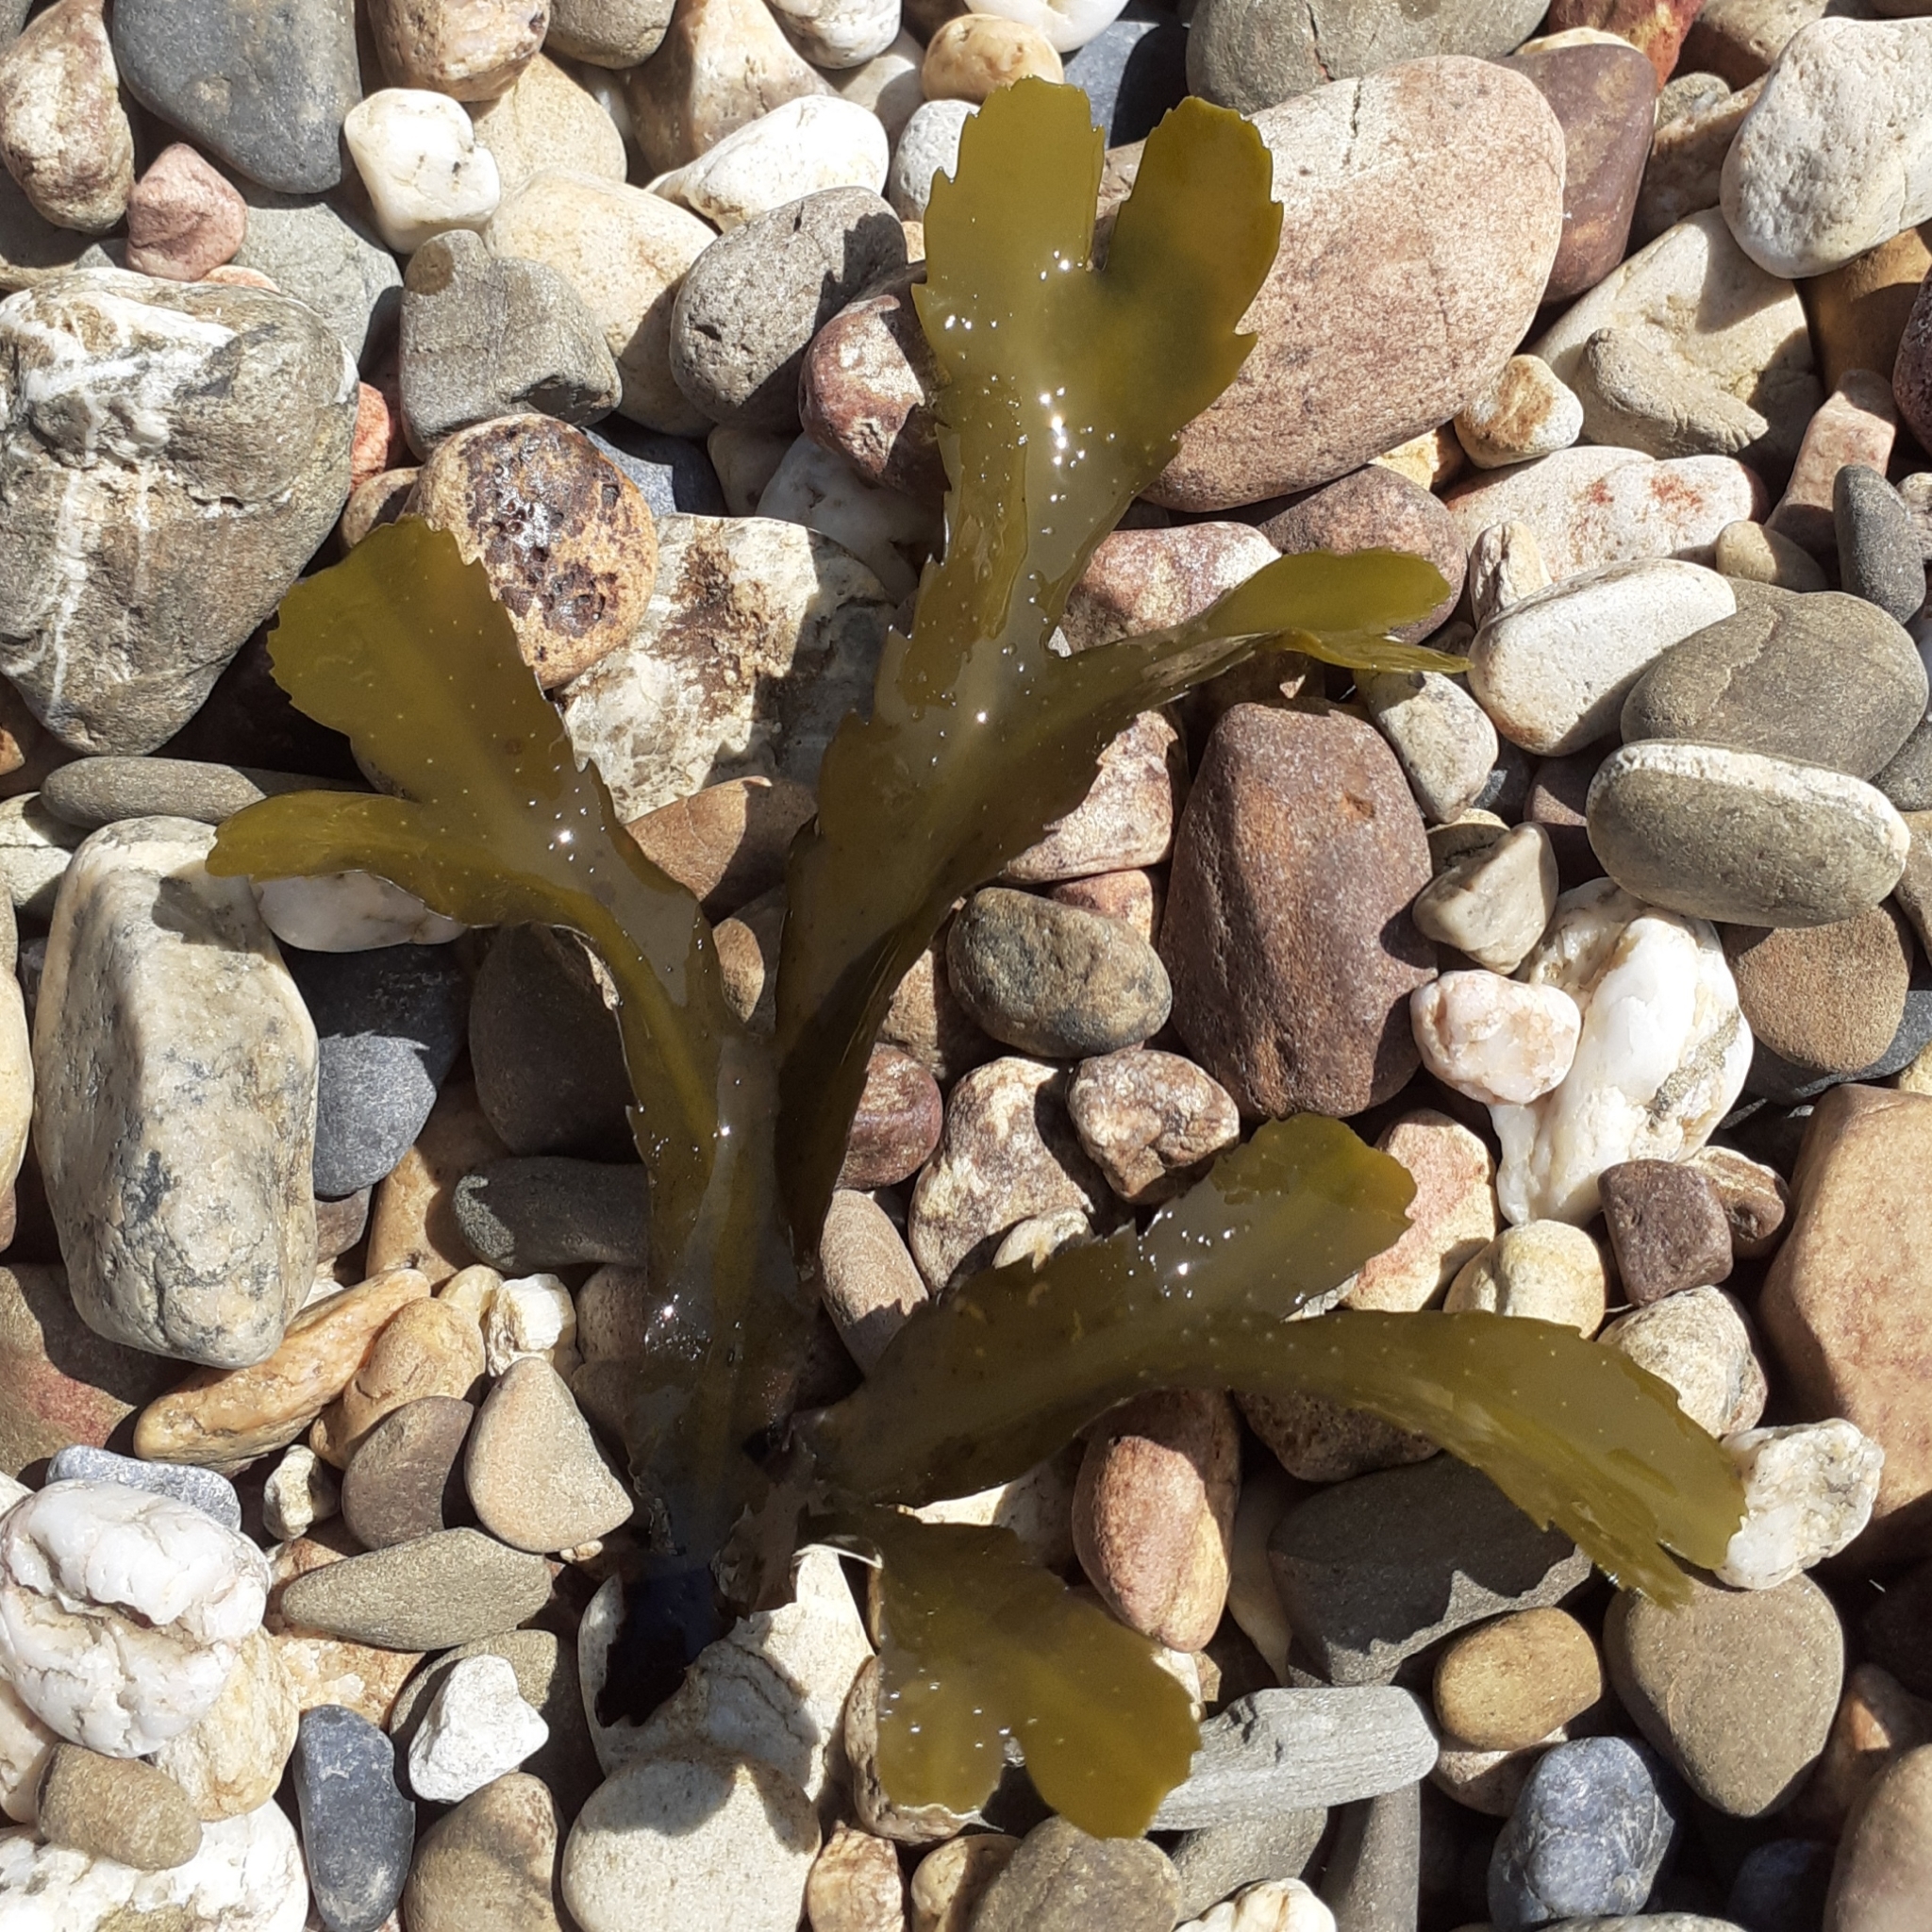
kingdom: Chromista
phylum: Ochrophyta
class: Phaeophyceae
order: Fucales
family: Fucaceae
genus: Fucus
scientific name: Fucus serratus
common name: Toothed wrack
